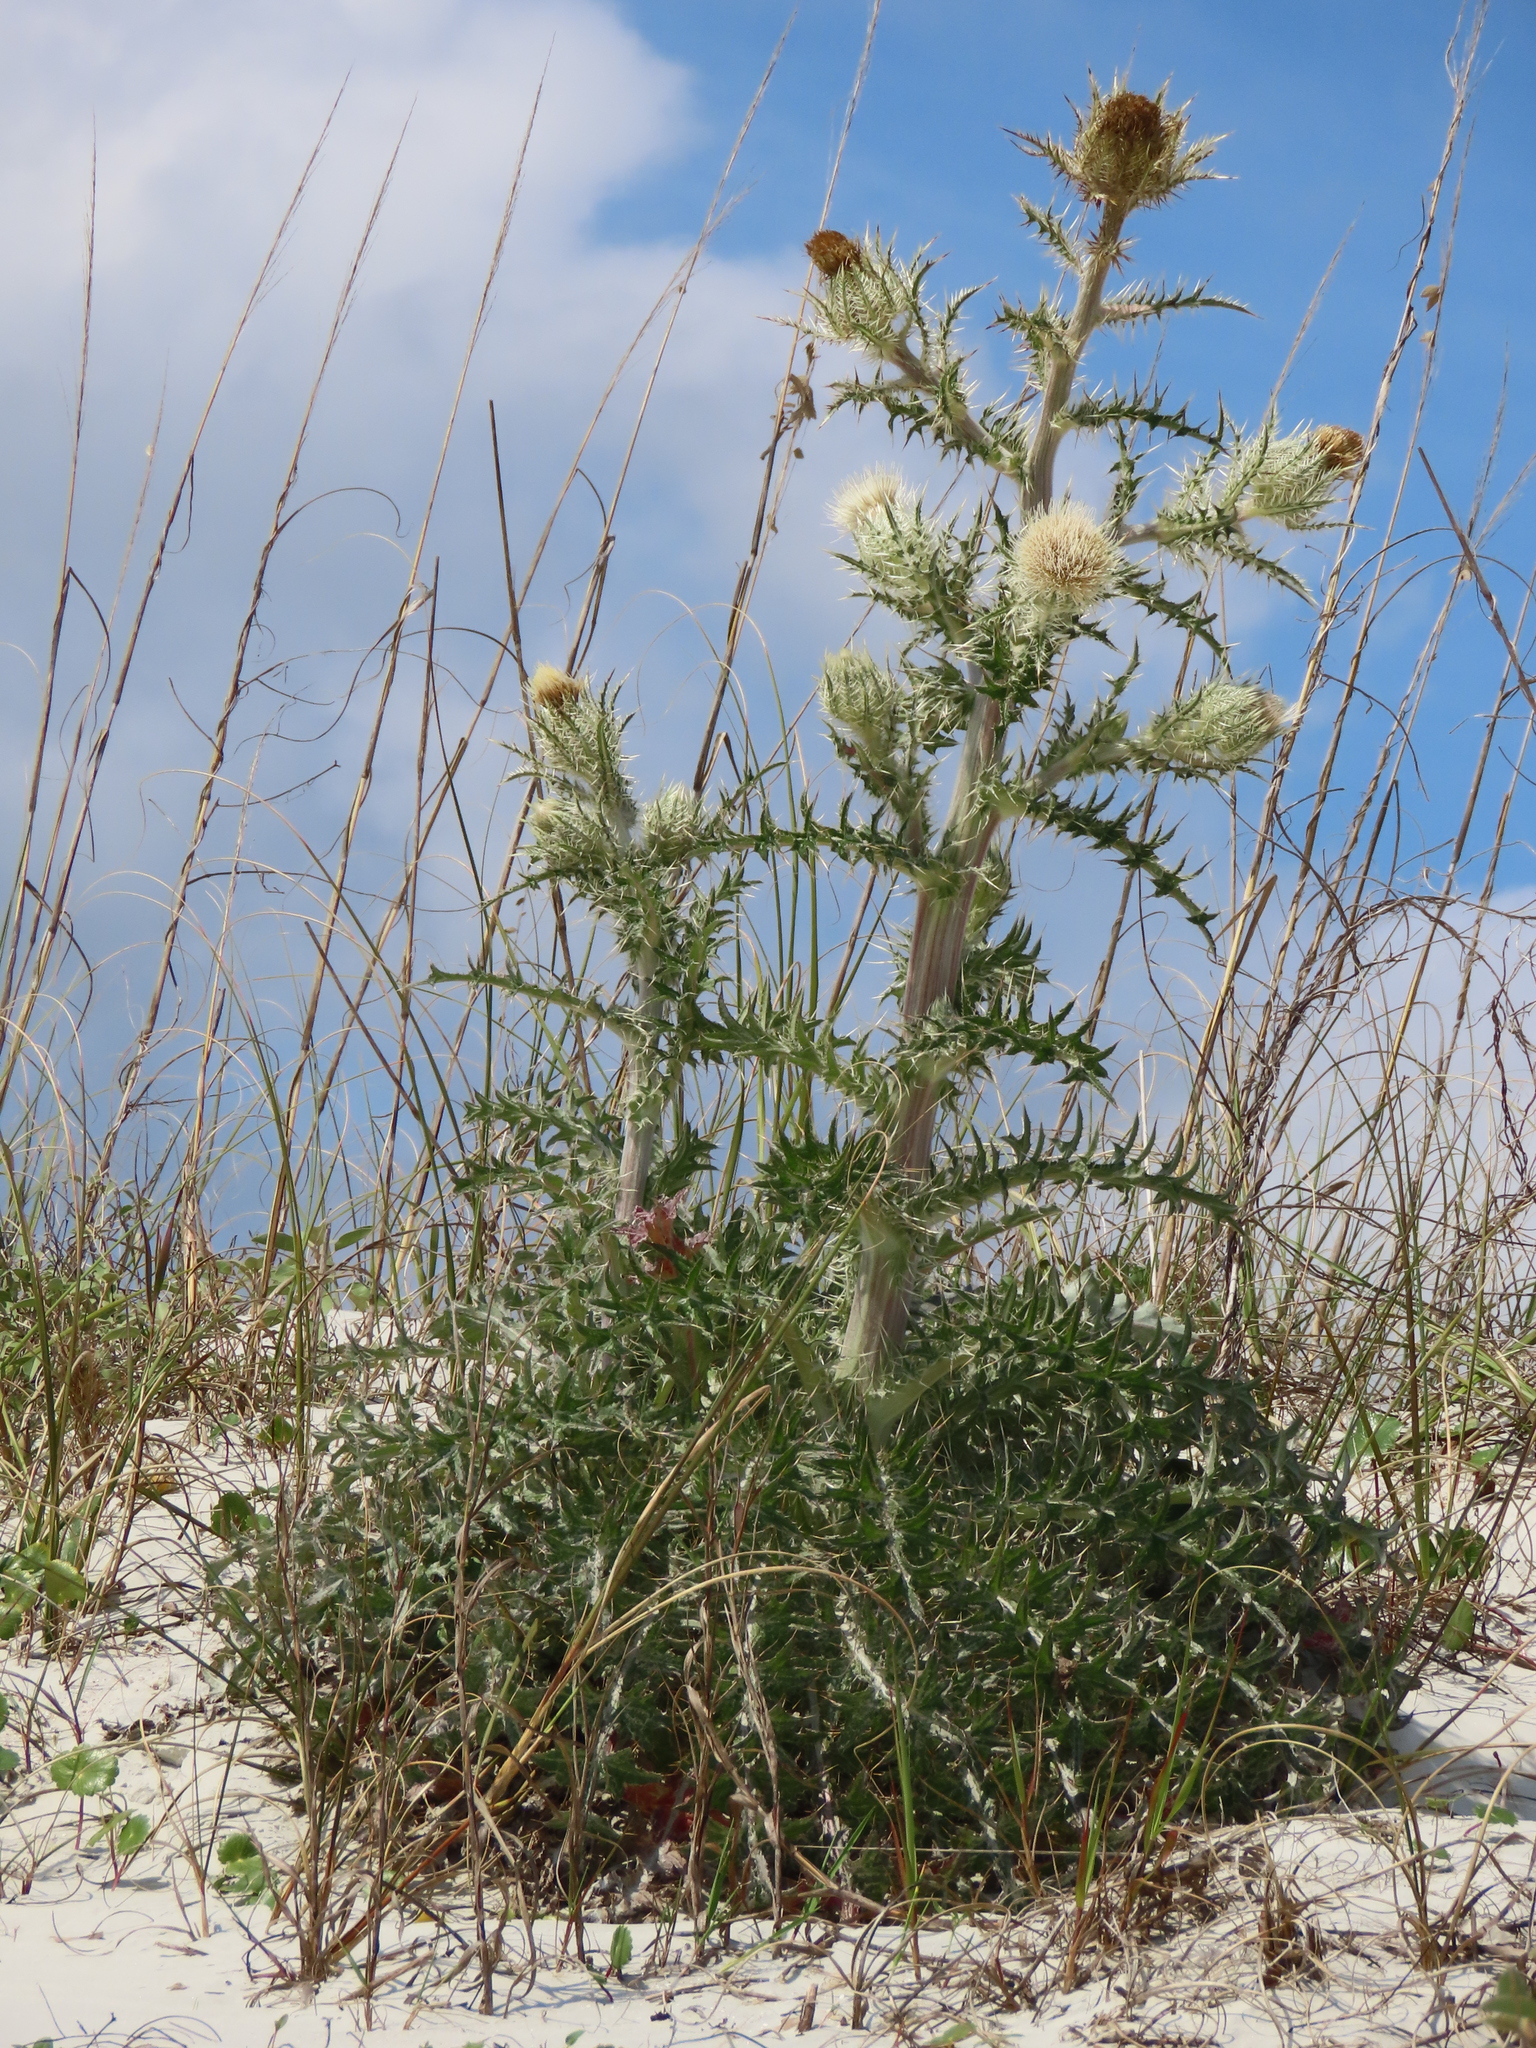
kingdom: Plantae
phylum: Tracheophyta
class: Magnoliopsida
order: Asterales
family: Asteraceae
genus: Cirsium
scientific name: Cirsium horridulum
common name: Bristly thistle
